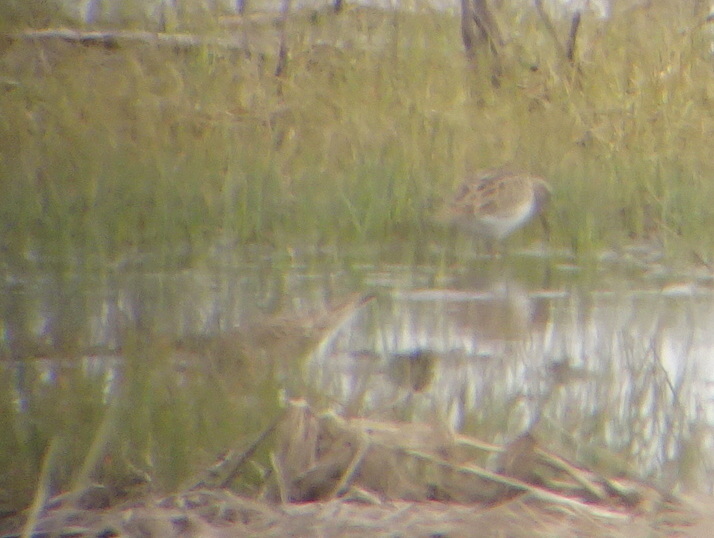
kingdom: Animalia
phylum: Chordata
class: Aves
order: Charadriiformes
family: Scolopacidae
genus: Calidris
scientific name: Calidris melanotos
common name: Pectoral sandpiper
